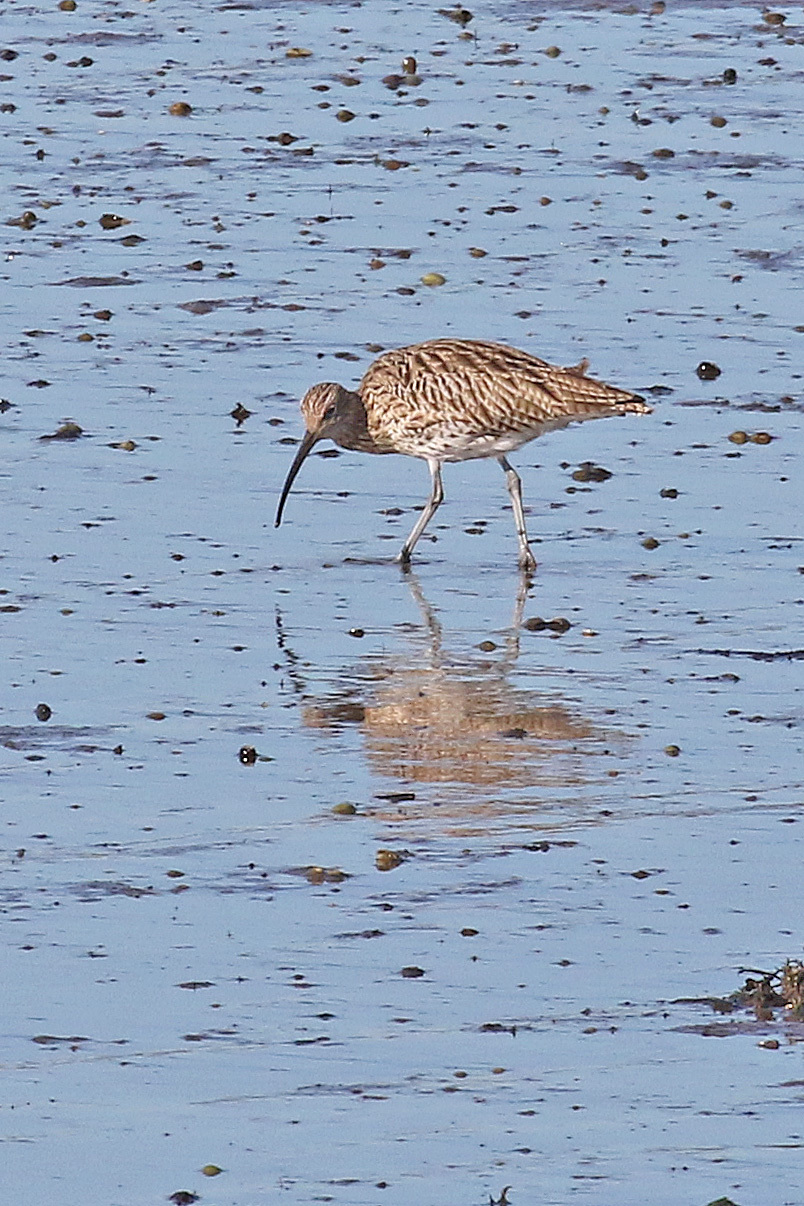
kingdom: Animalia
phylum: Chordata
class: Aves
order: Charadriiformes
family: Scolopacidae
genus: Numenius
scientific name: Numenius arquata
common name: Eurasian curlew
